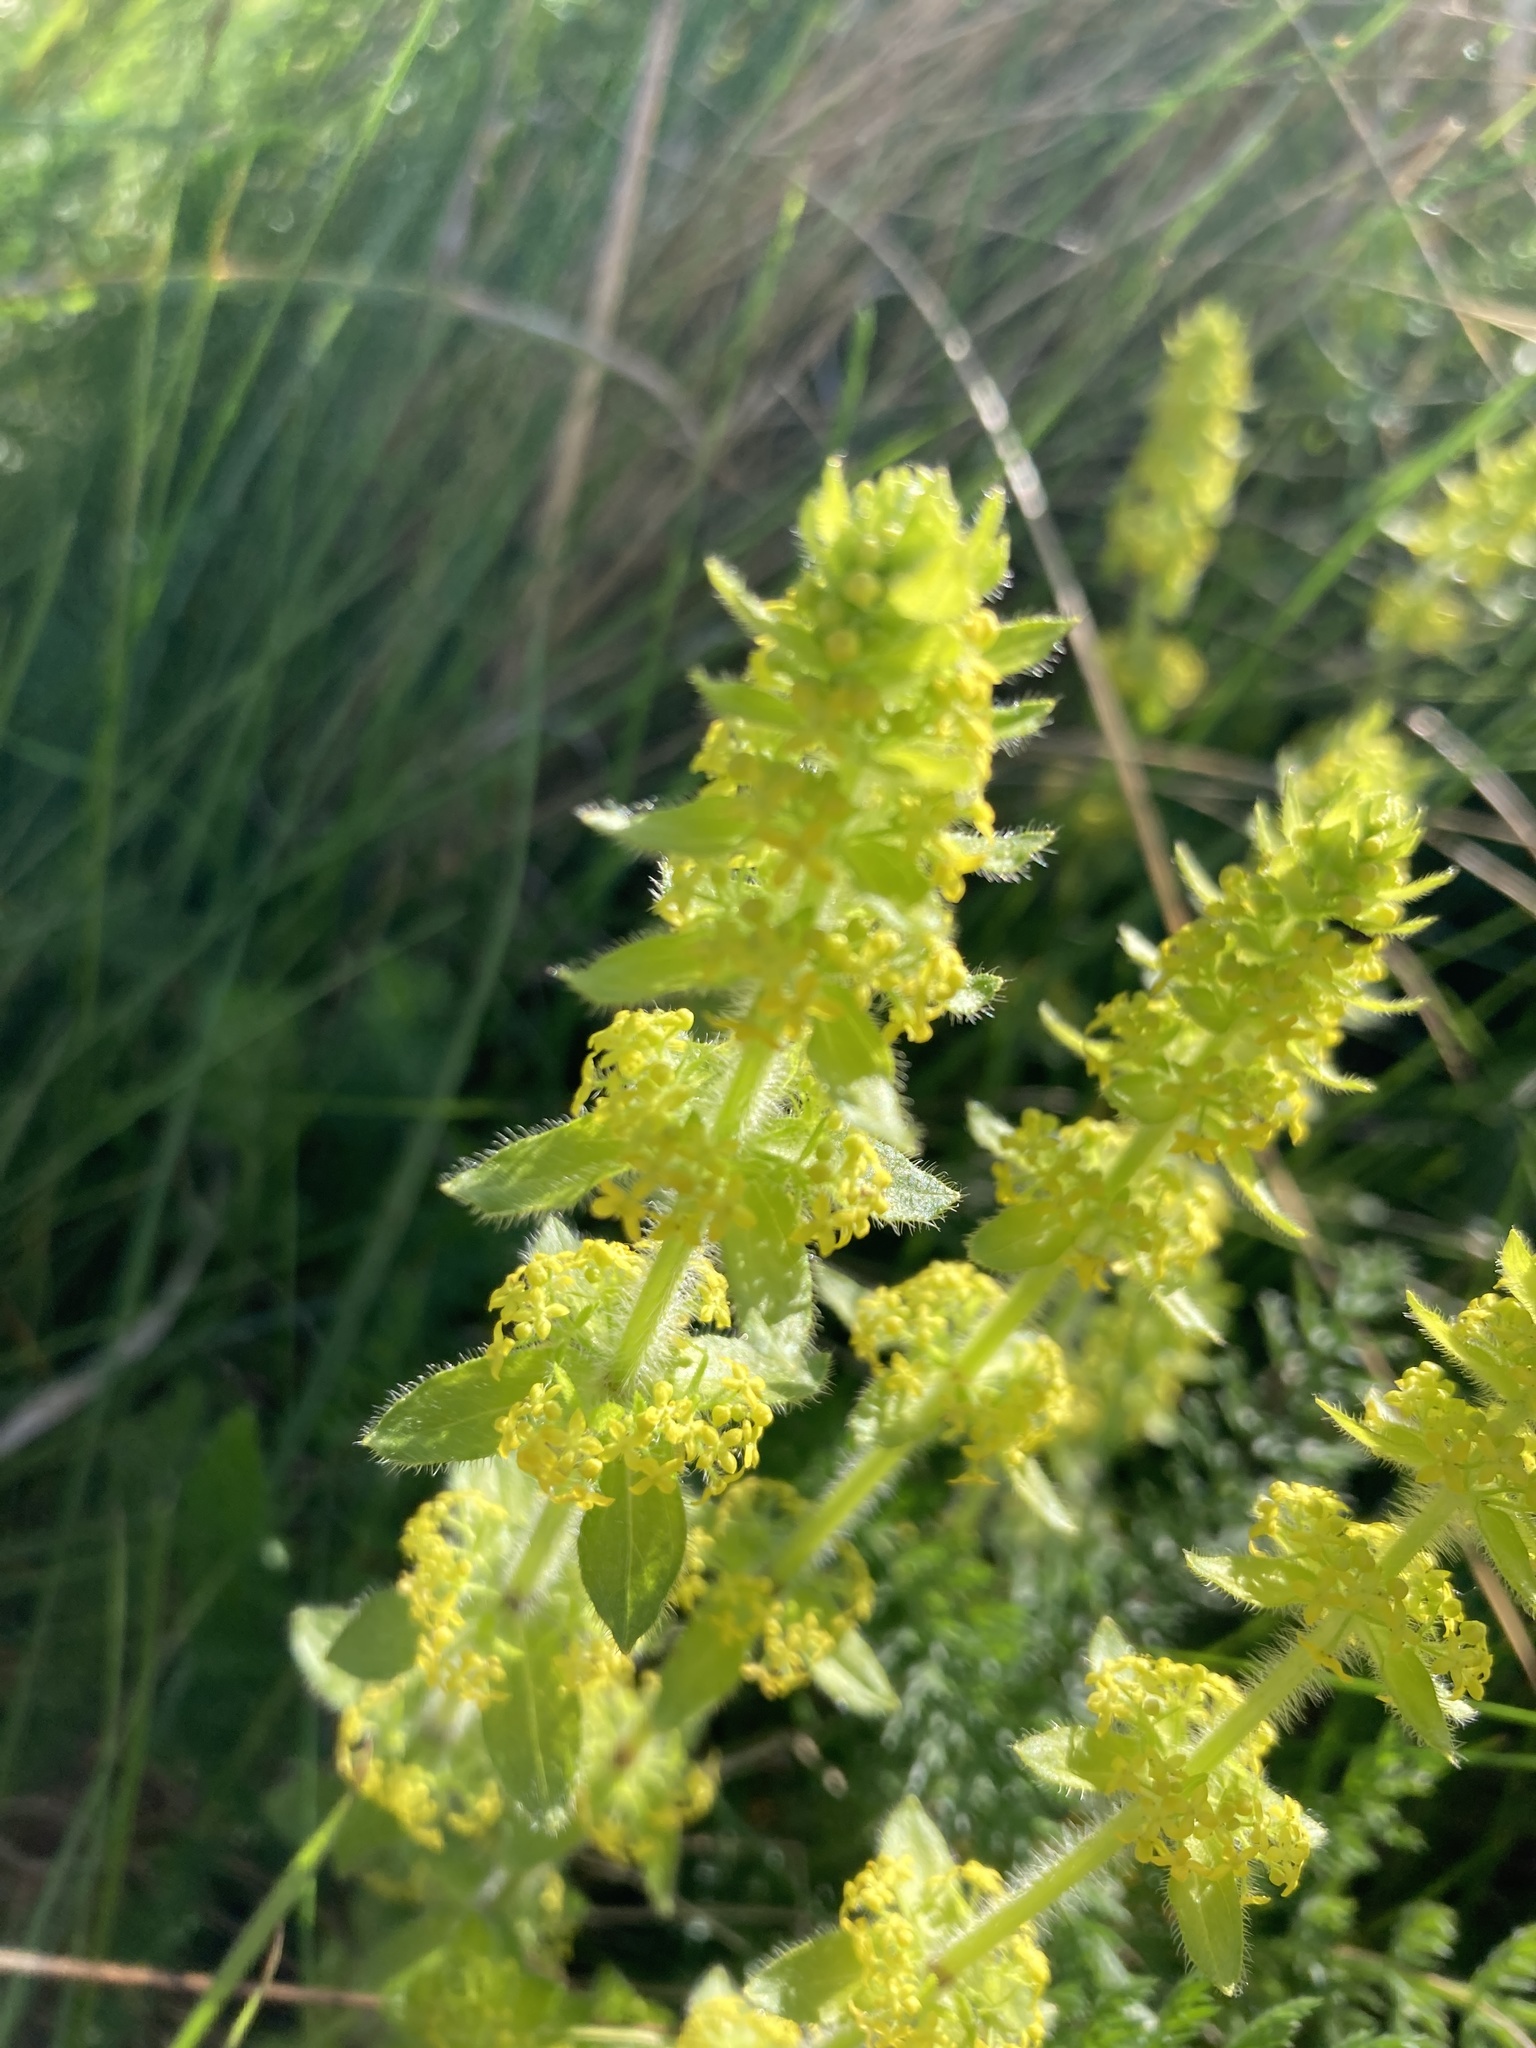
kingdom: Plantae
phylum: Tracheophyta
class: Magnoliopsida
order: Gentianales
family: Rubiaceae
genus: Cruciata
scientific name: Cruciata laevipes
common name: Crosswort
